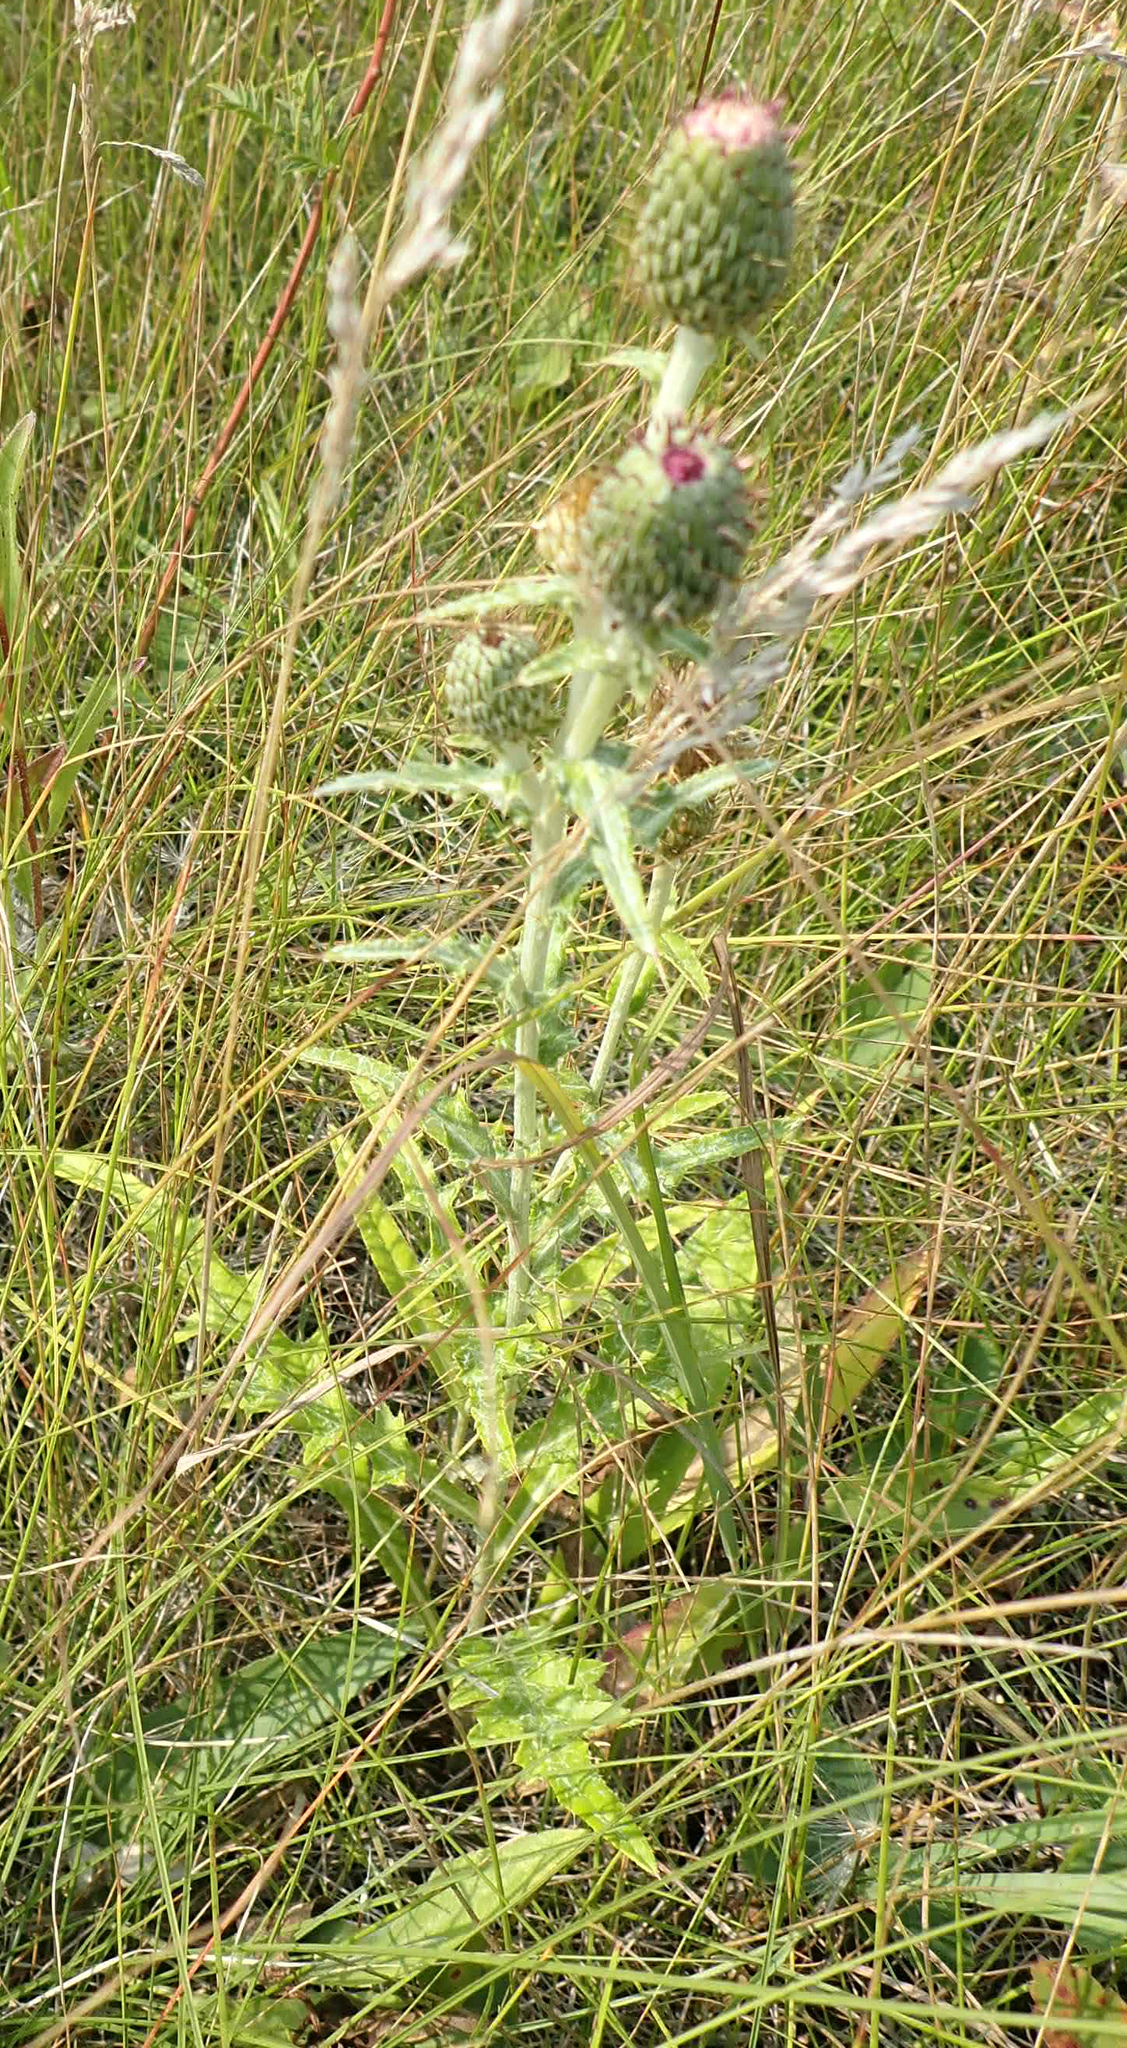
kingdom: Plantae
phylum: Tracheophyta
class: Magnoliopsida
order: Asterales
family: Asteraceae
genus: Cirsium
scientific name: Cirsium flodmanii
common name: Flodman's thistle
